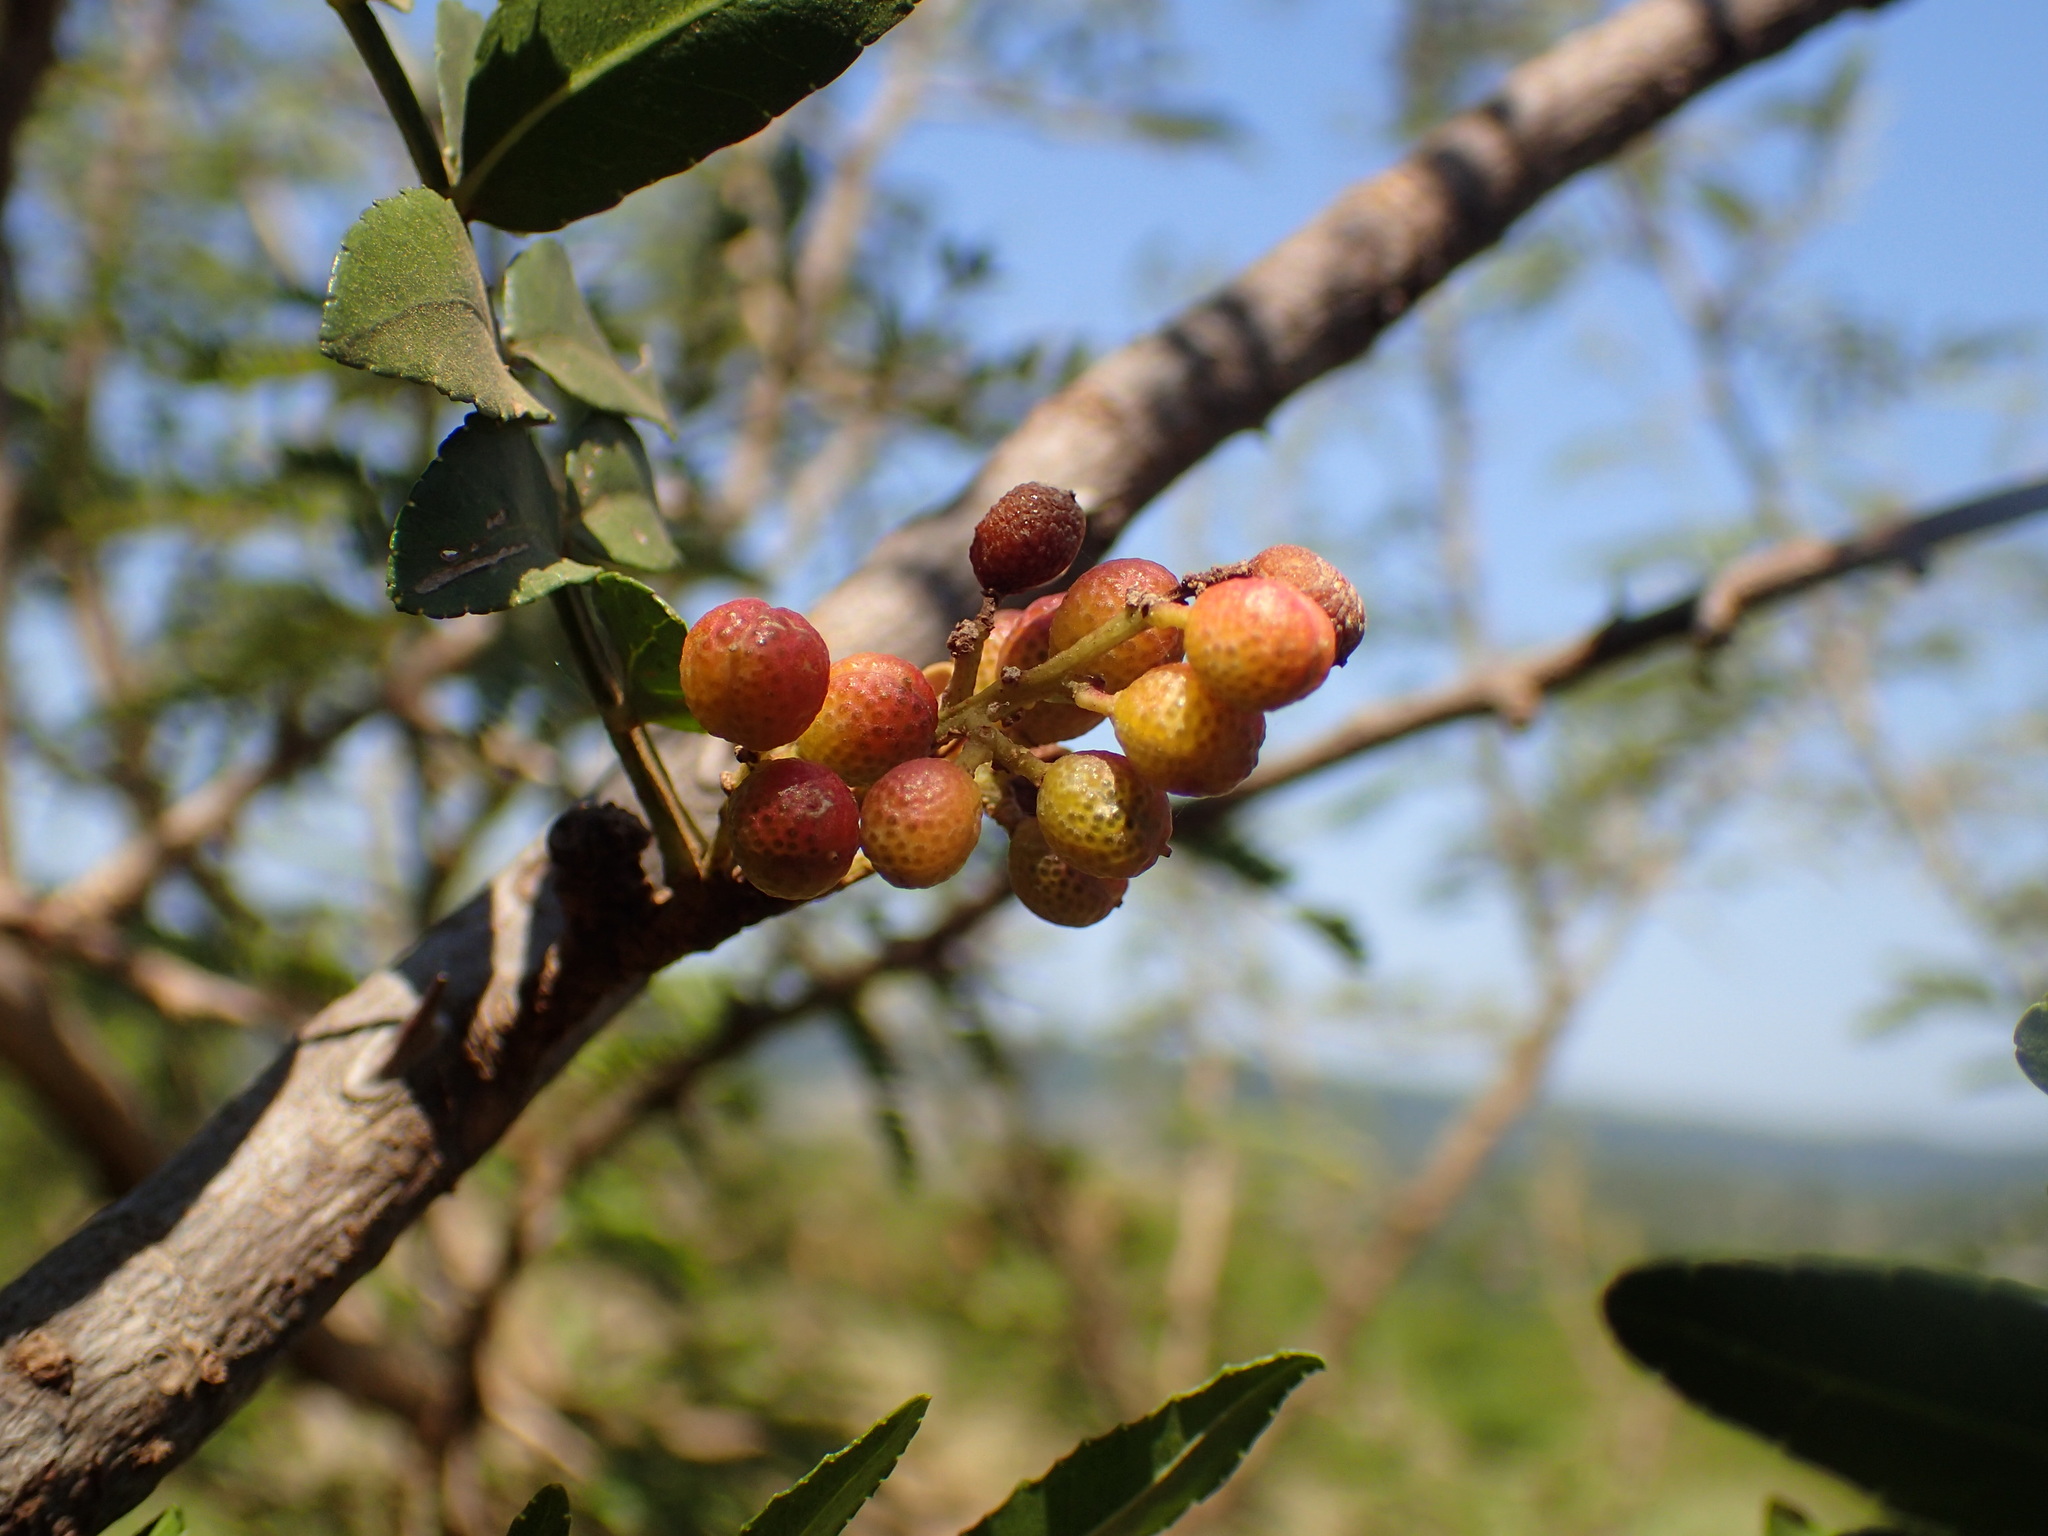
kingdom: Plantae
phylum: Tracheophyta
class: Magnoliopsida
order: Sapindales
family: Rutaceae
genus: Zanthoxylum
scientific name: Zanthoxylum capense
